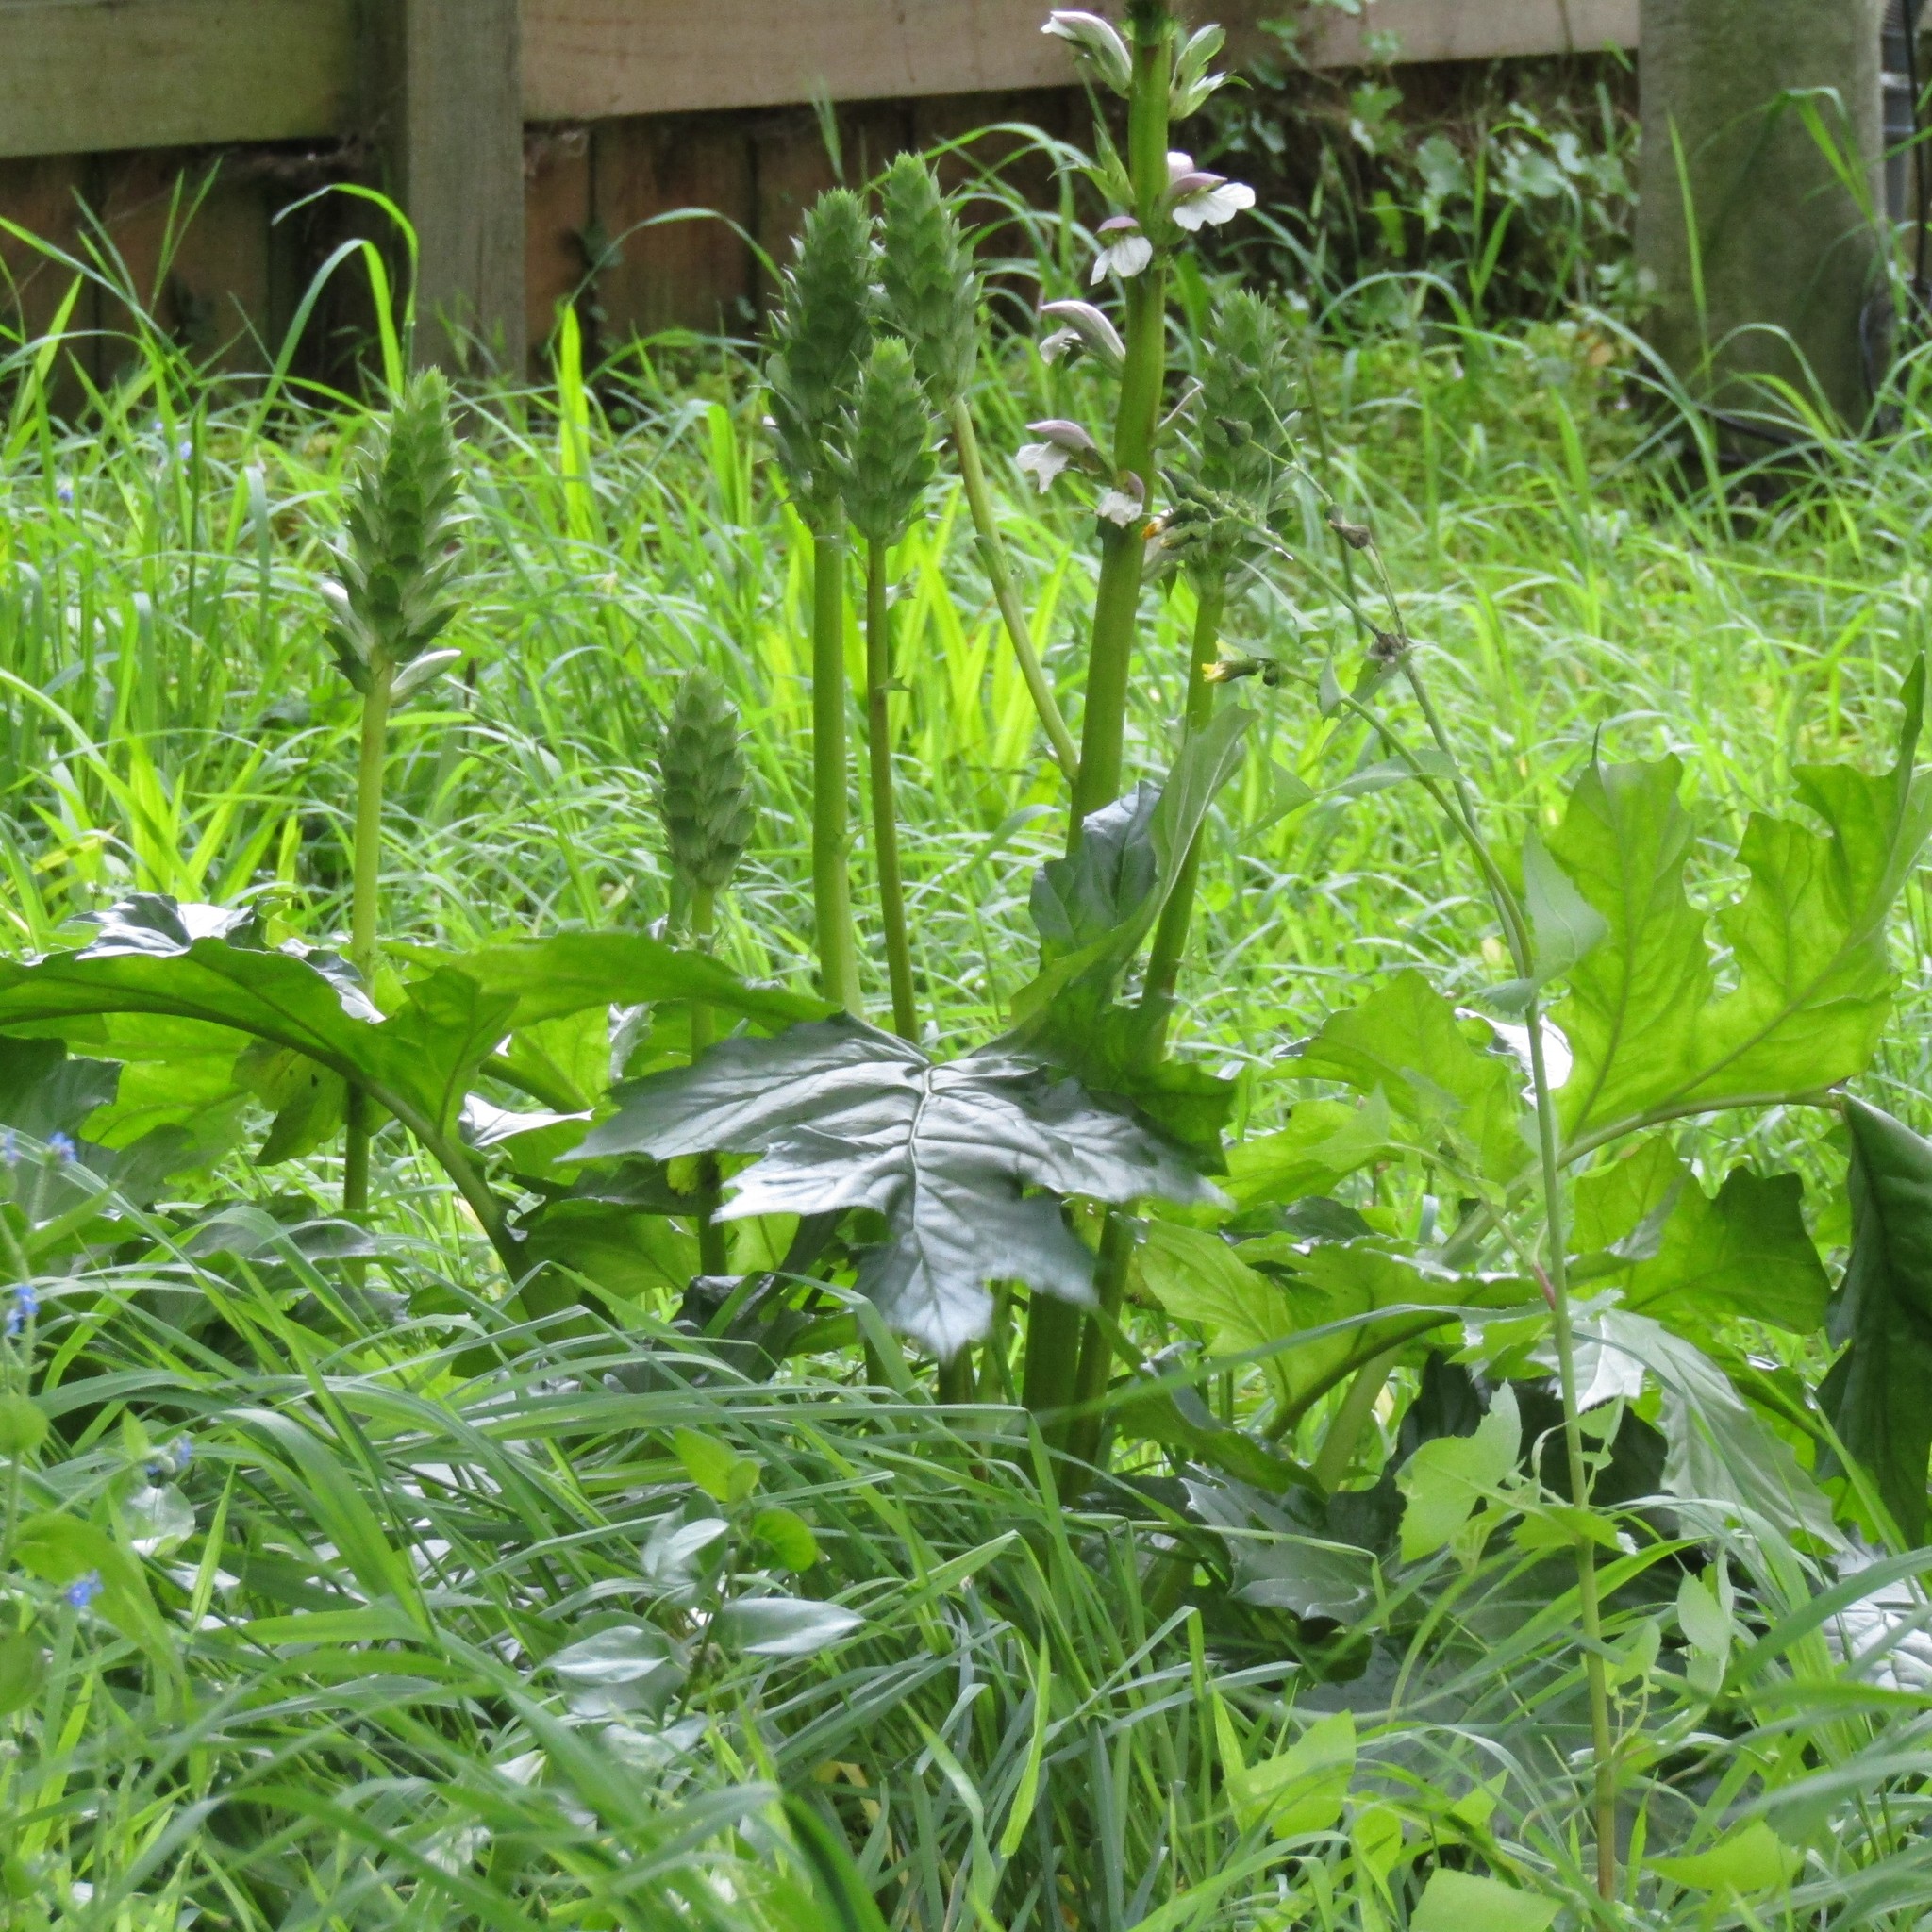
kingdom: Plantae
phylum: Tracheophyta
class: Magnoliopsida
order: Lamiales
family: Acanthaceae
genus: Acanthus
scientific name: Acanthus mollis
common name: Bear's-breech
